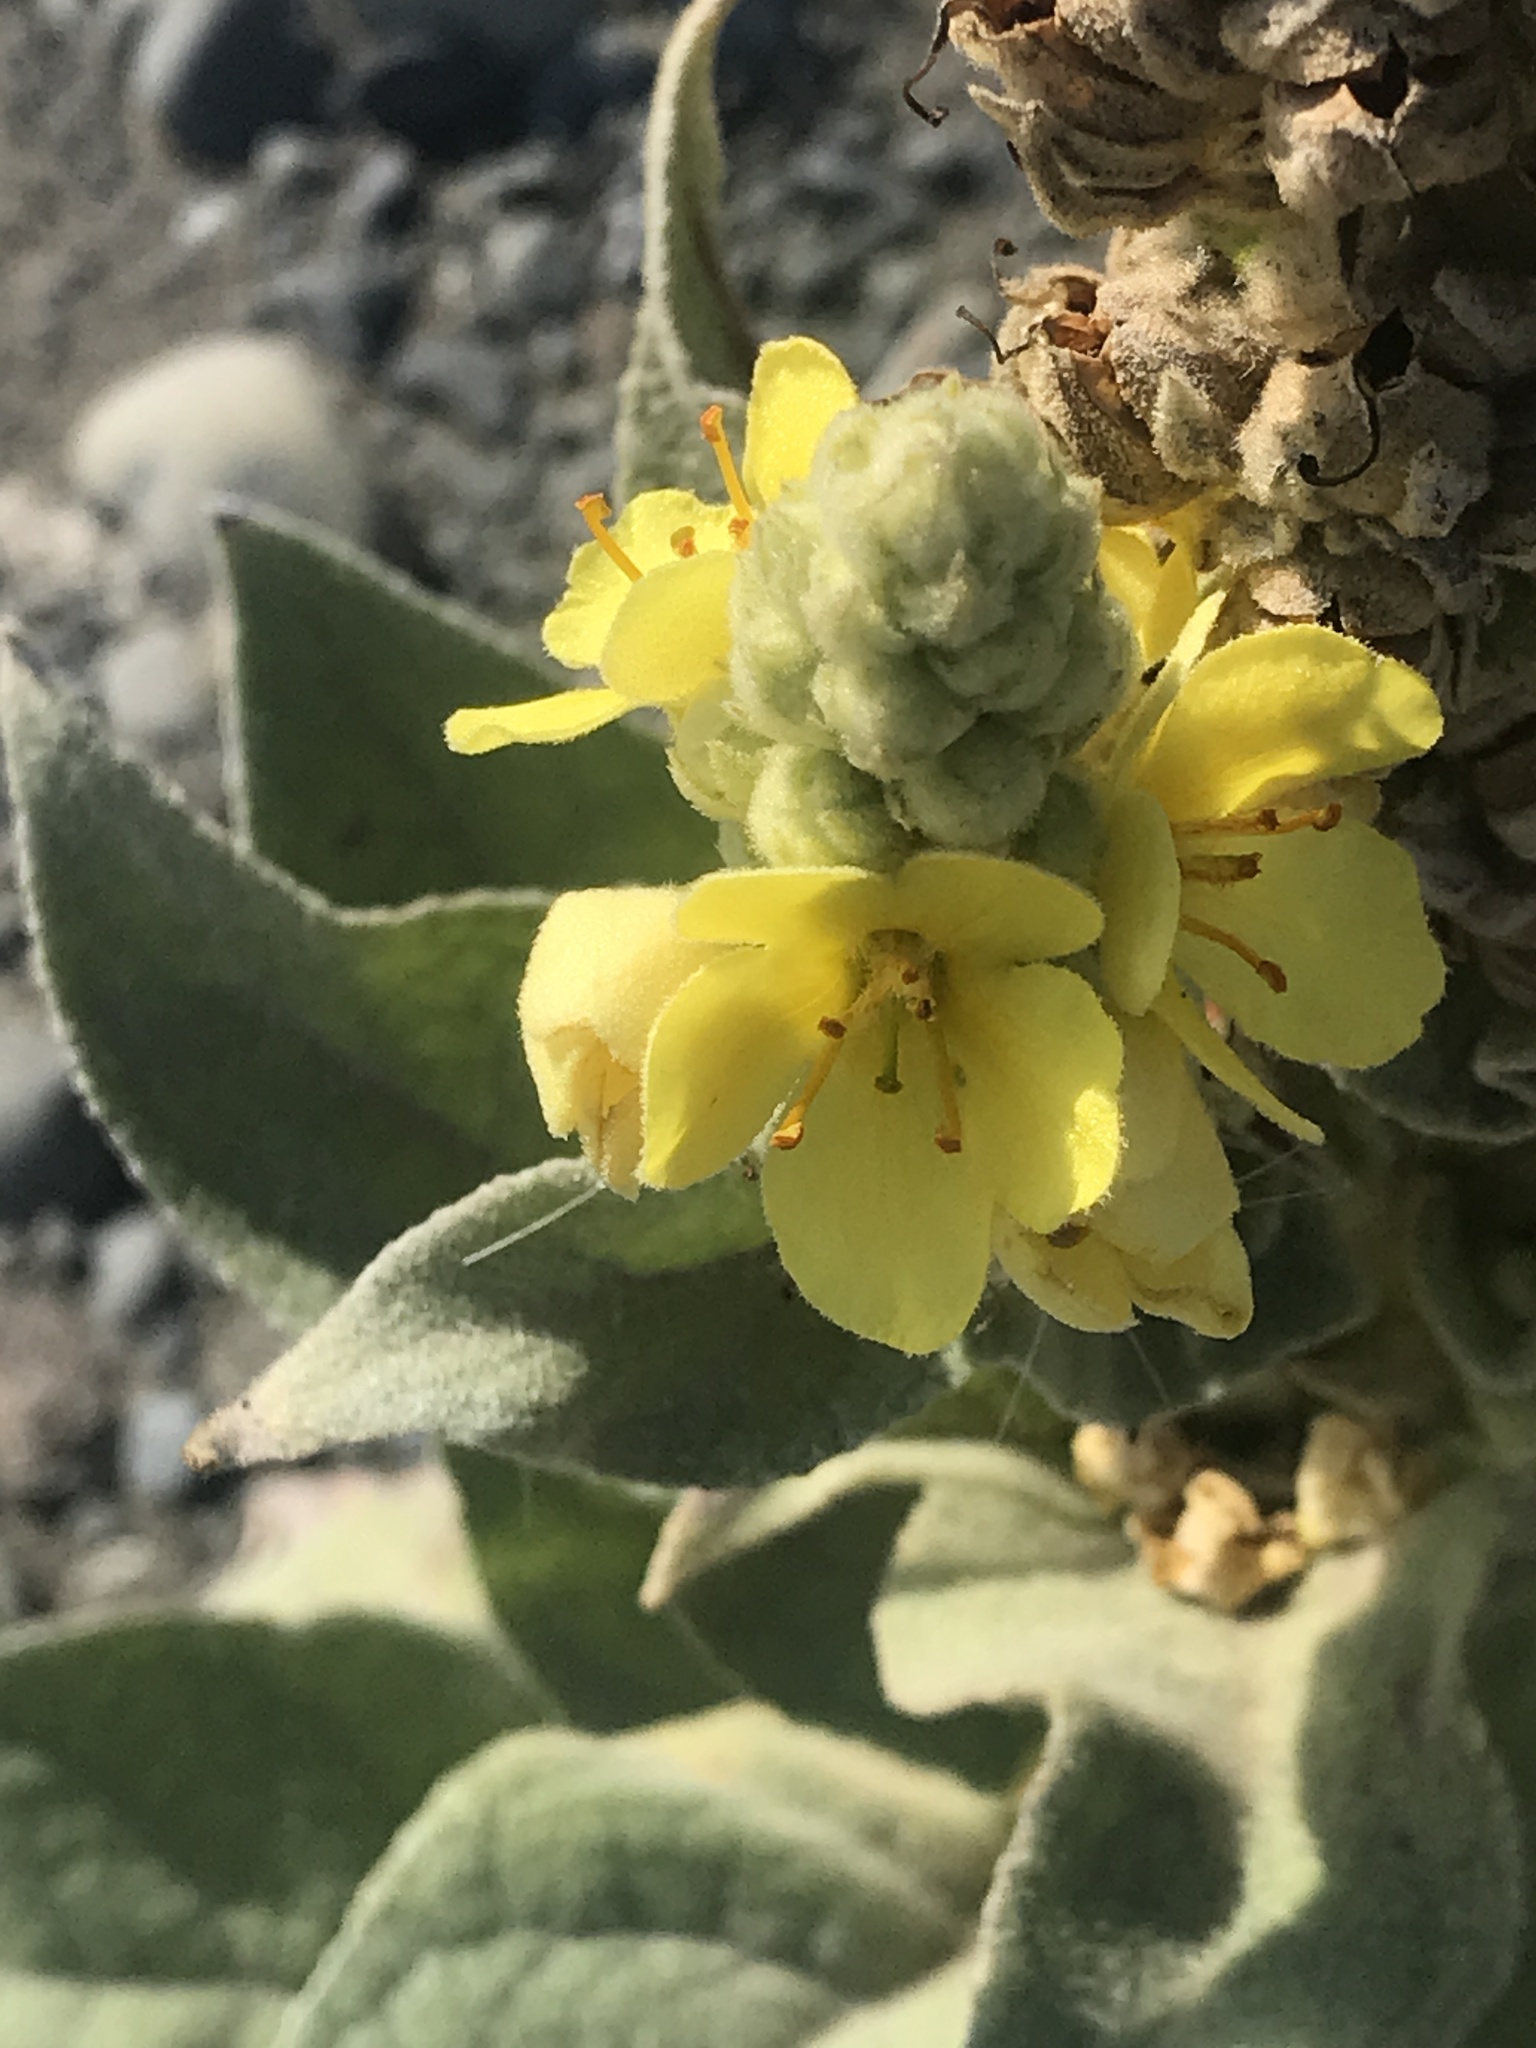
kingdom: Plantae
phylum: Tracheophyta
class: Magnoliopsida
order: Lamiales
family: Scrophulariaceae
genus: Verbascum
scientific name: Verbascum thapsus
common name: Common mullein
